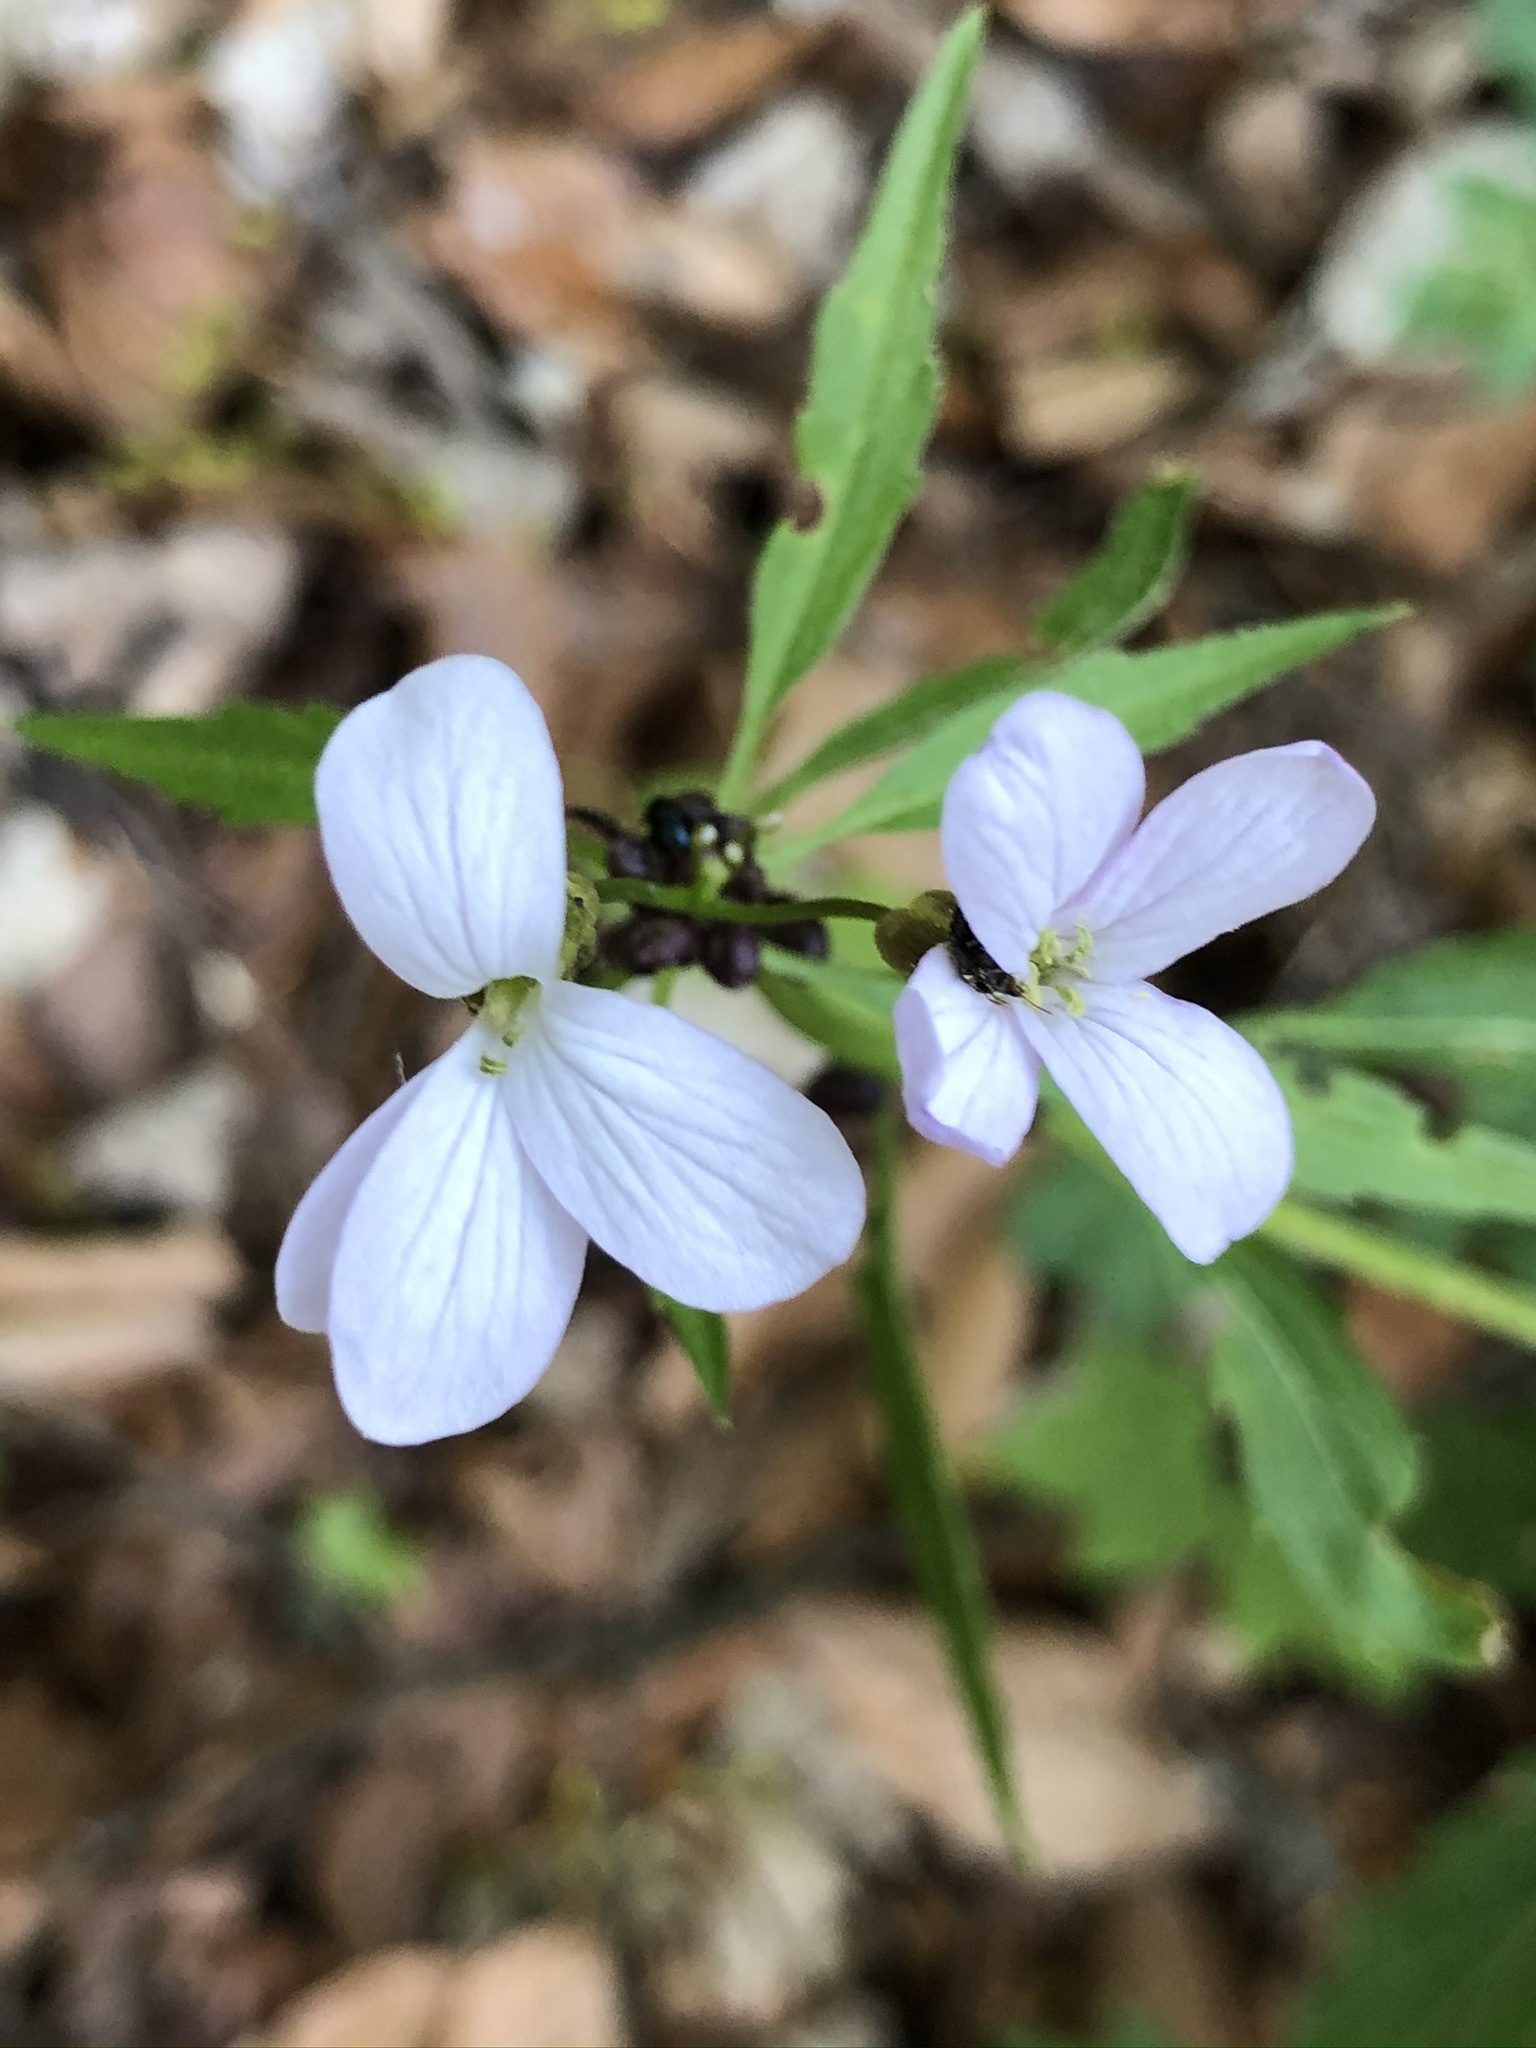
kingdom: Plantae
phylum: Tracheophyta
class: Magnoliopsida
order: Brassicales
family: Brassicaceae
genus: Cardamine
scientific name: Cardamine bulbifera
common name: Coralroot bittercress
